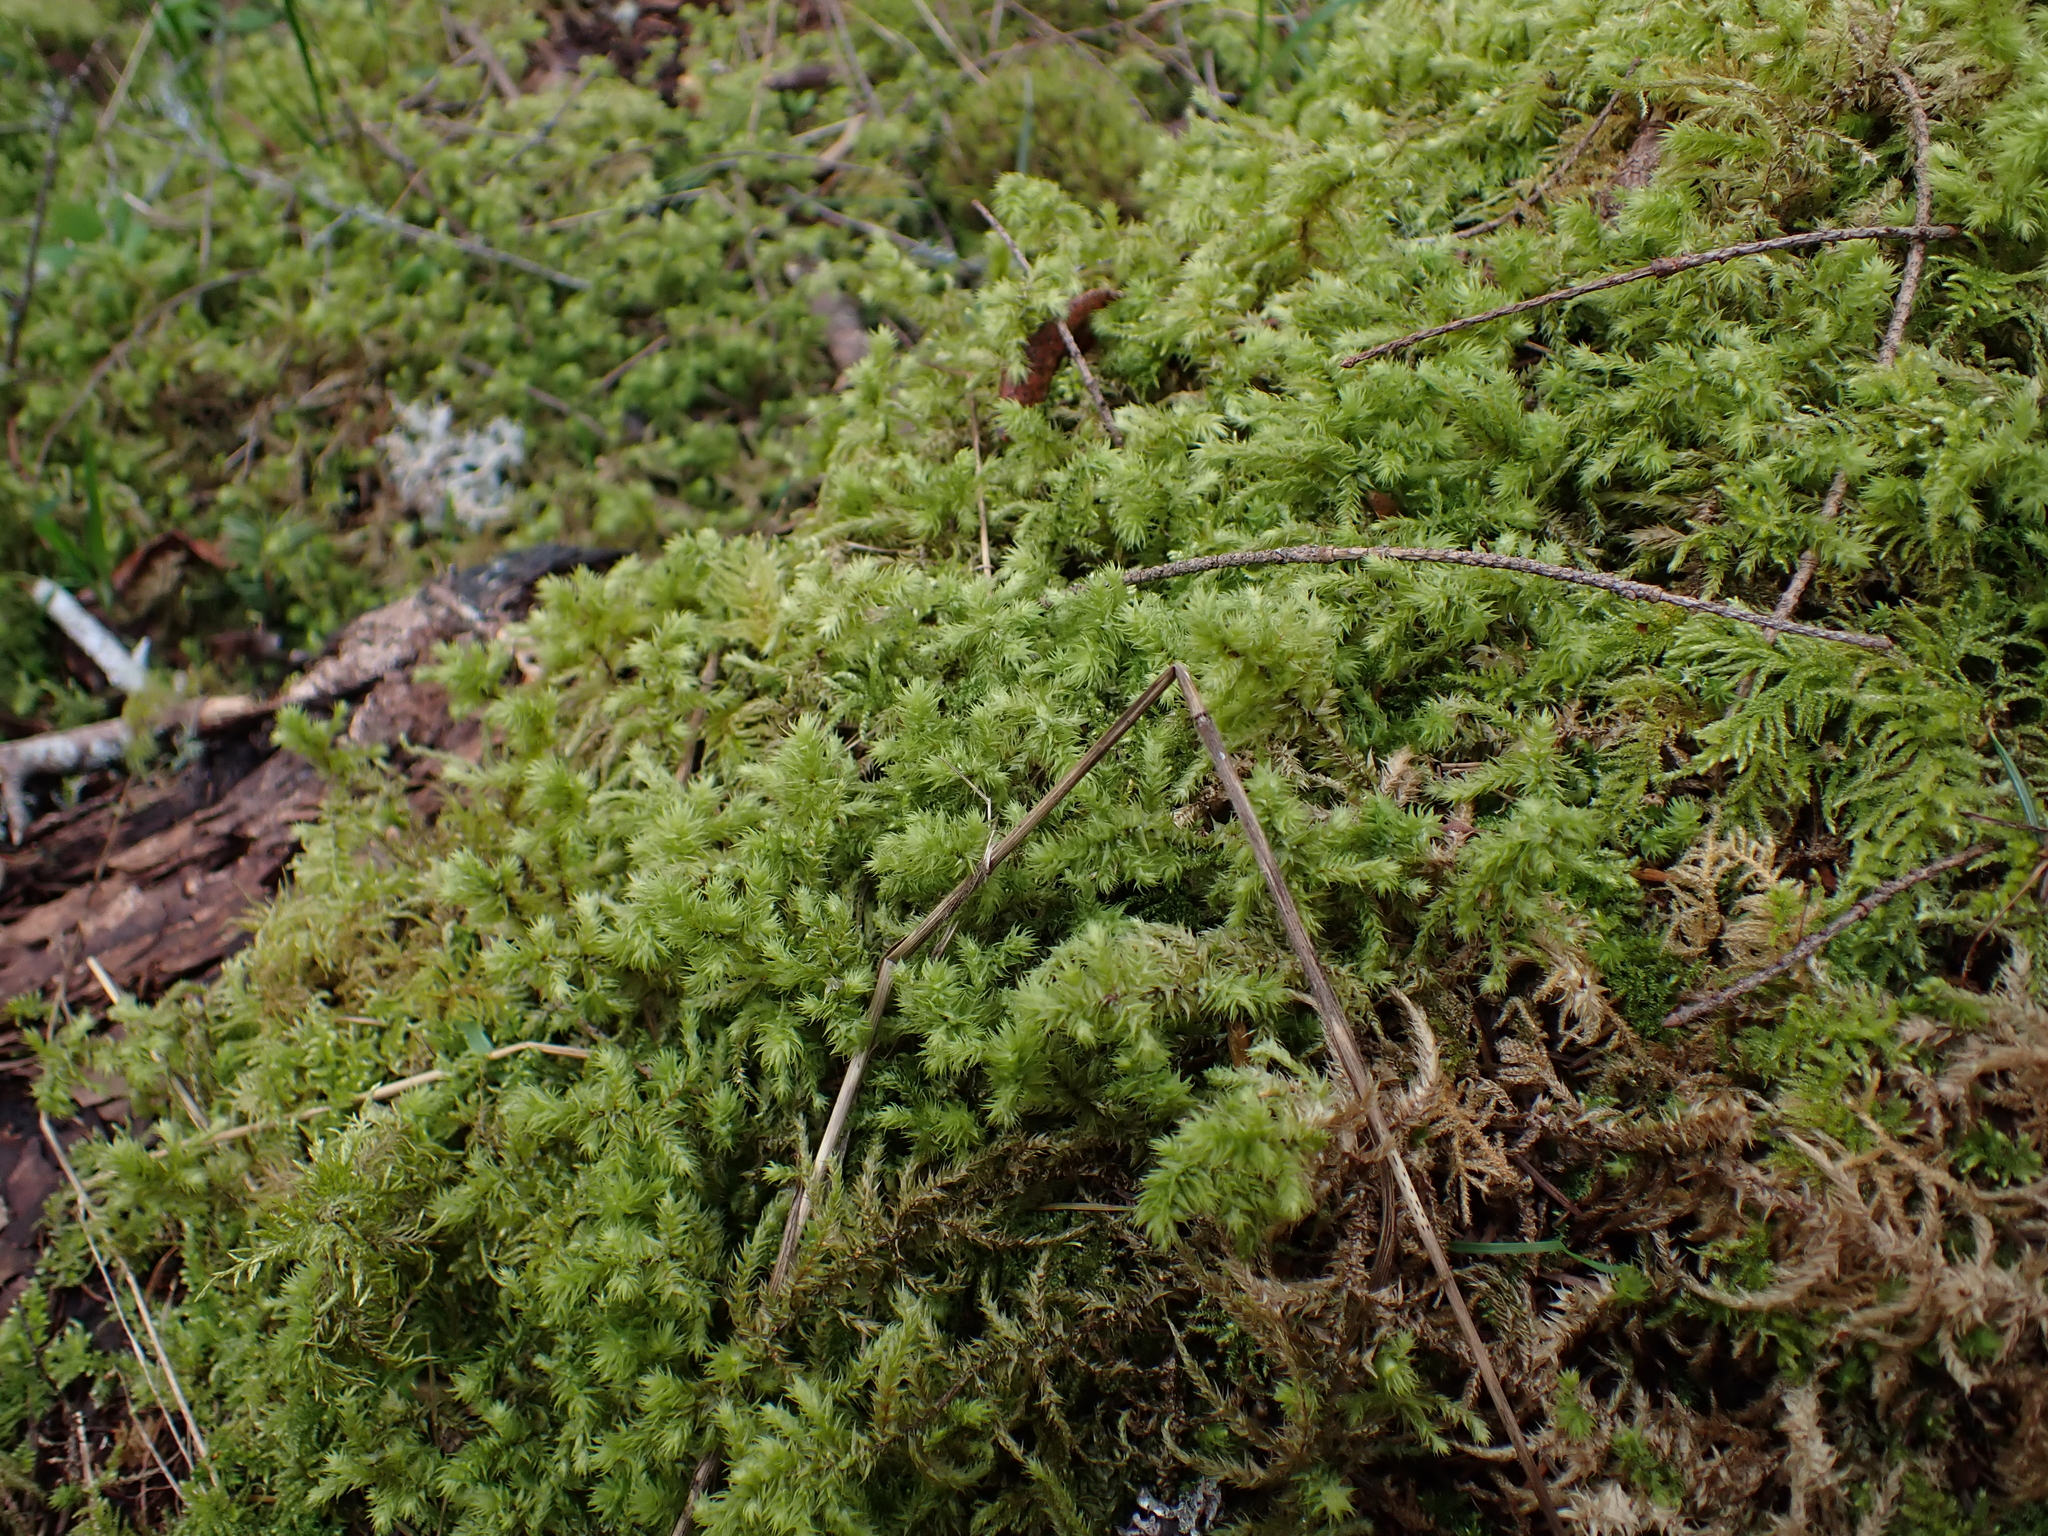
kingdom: Plantae
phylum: Bryophyta
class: Bryopsida
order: Hypnales
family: Hylocomiaceae
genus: Hylocomiadelphus
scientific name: Hylocomiadelphus triquetrus
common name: Rough goose neck moss
